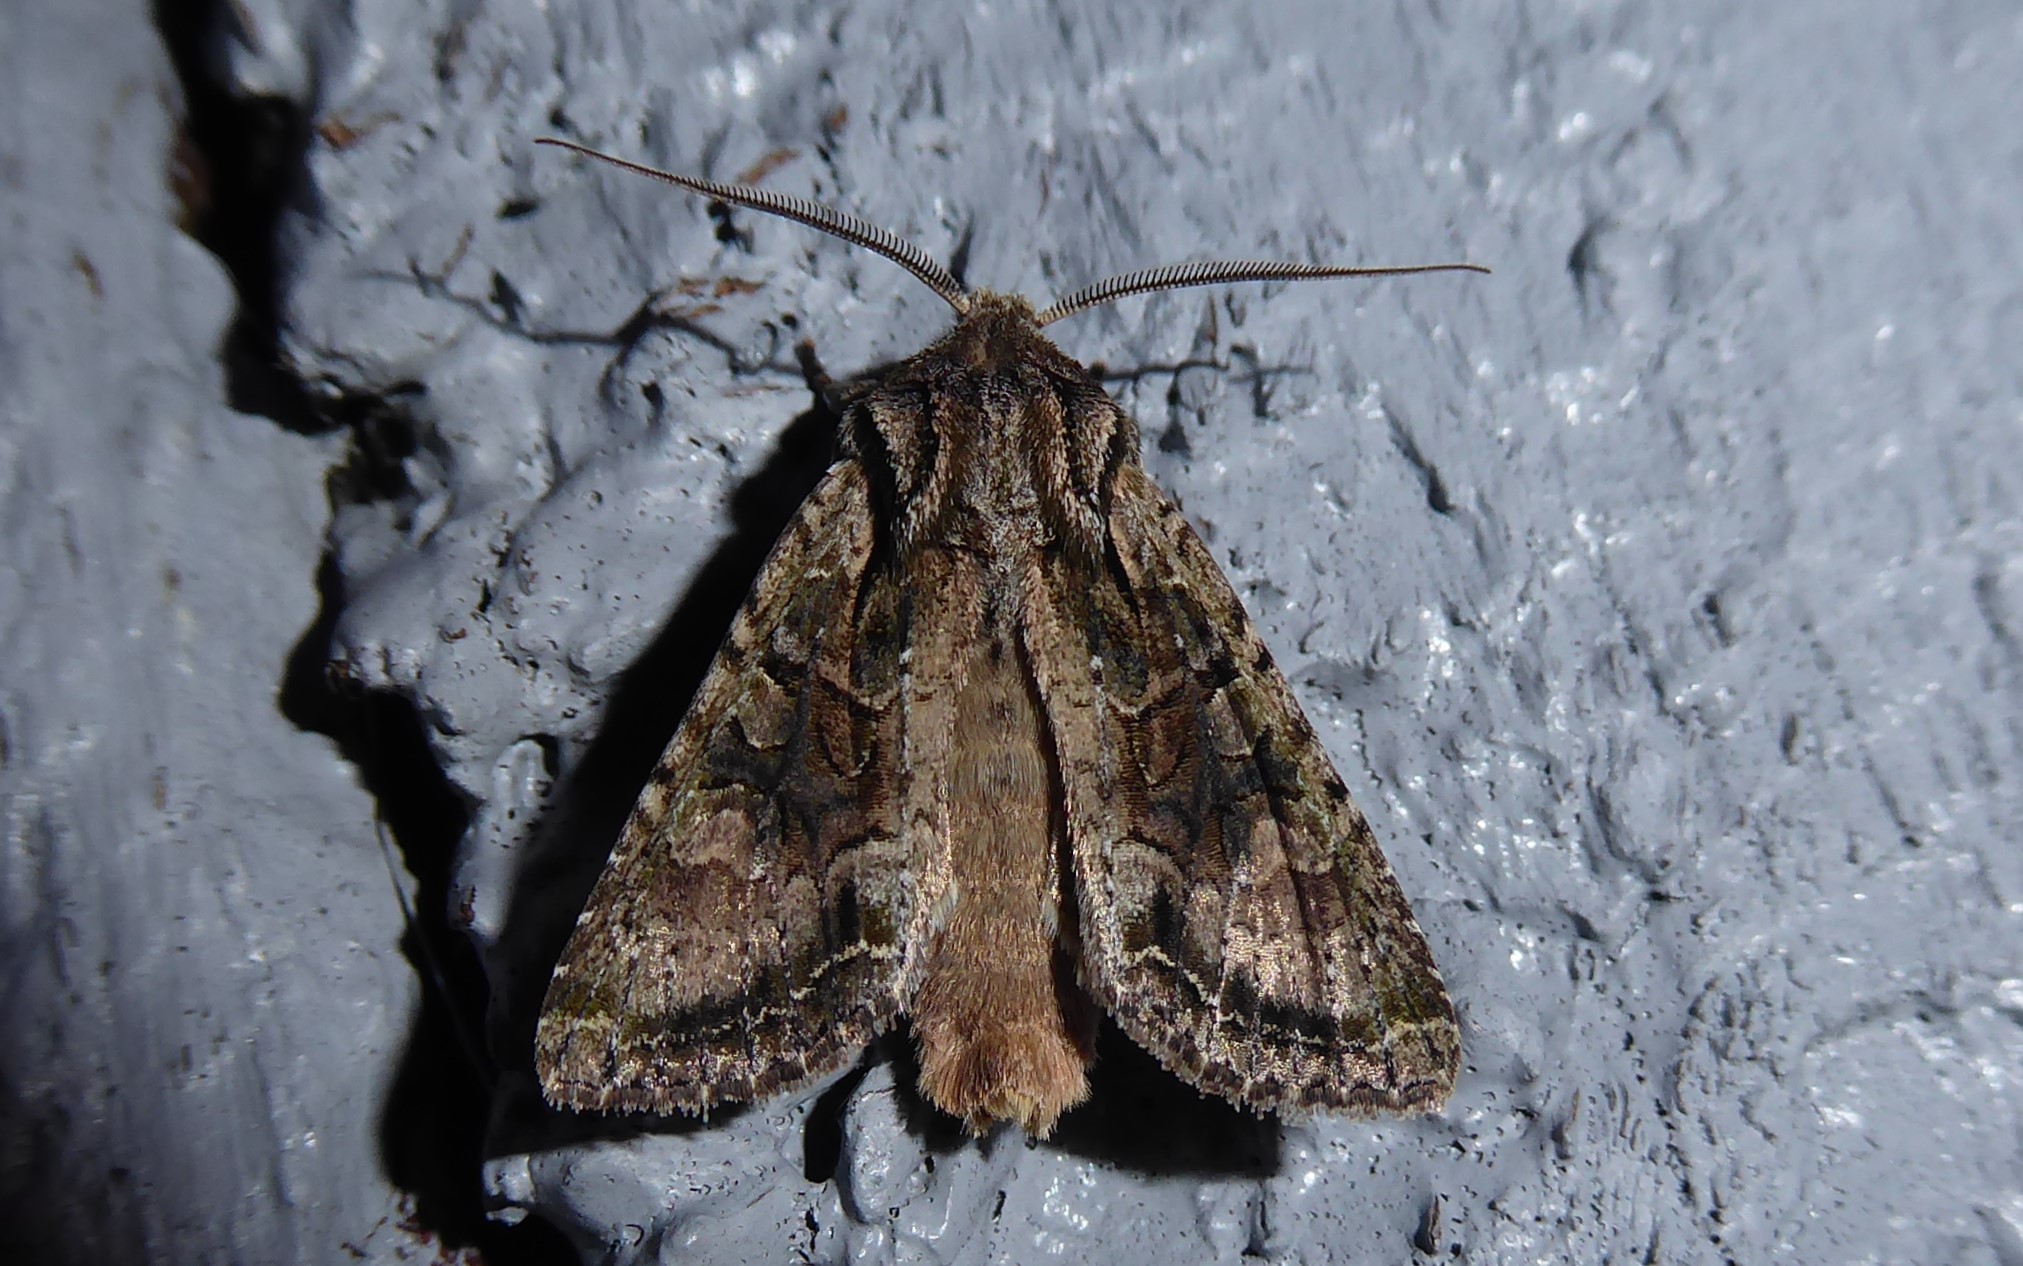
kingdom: Animalia
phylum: Arthropoda
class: Insecta
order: Lepidoptera
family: Noctuidae
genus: Ichneutica
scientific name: Ichneutica mutans
